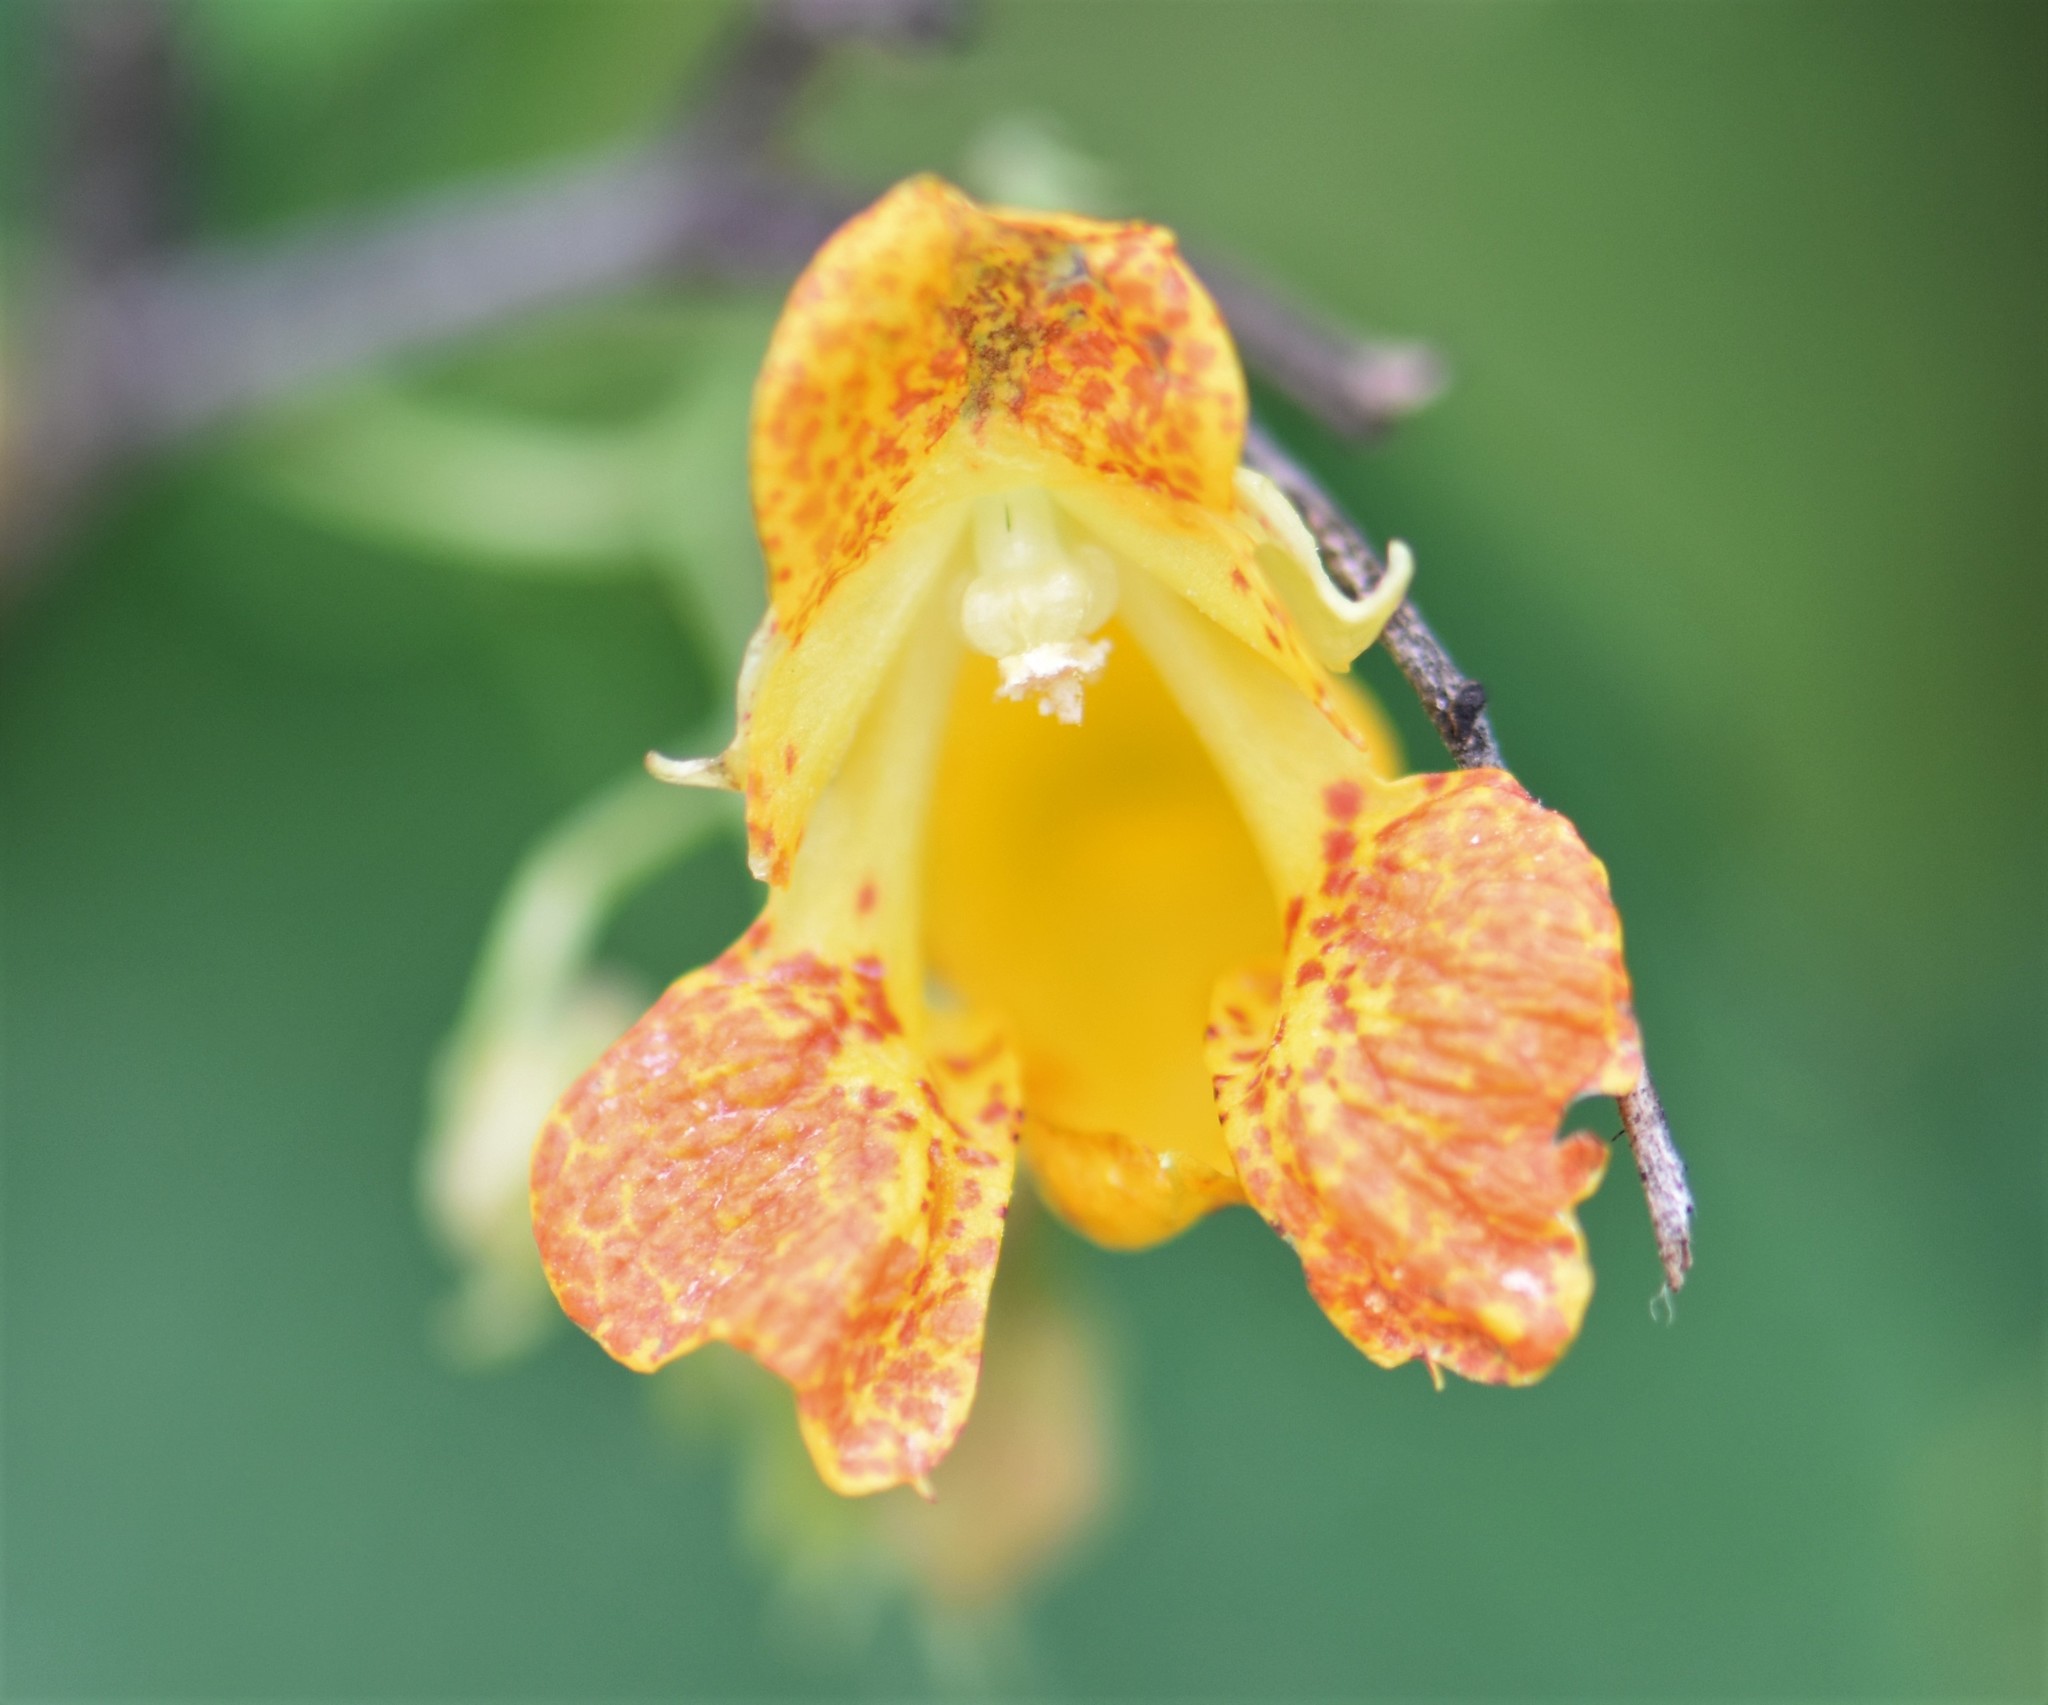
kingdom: Plantae
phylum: Tracheophyta
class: Magnoliopsida
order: Ericales
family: Balsaminaceae
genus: Impatiens
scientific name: Impatiens capensis
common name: Orange balsam
